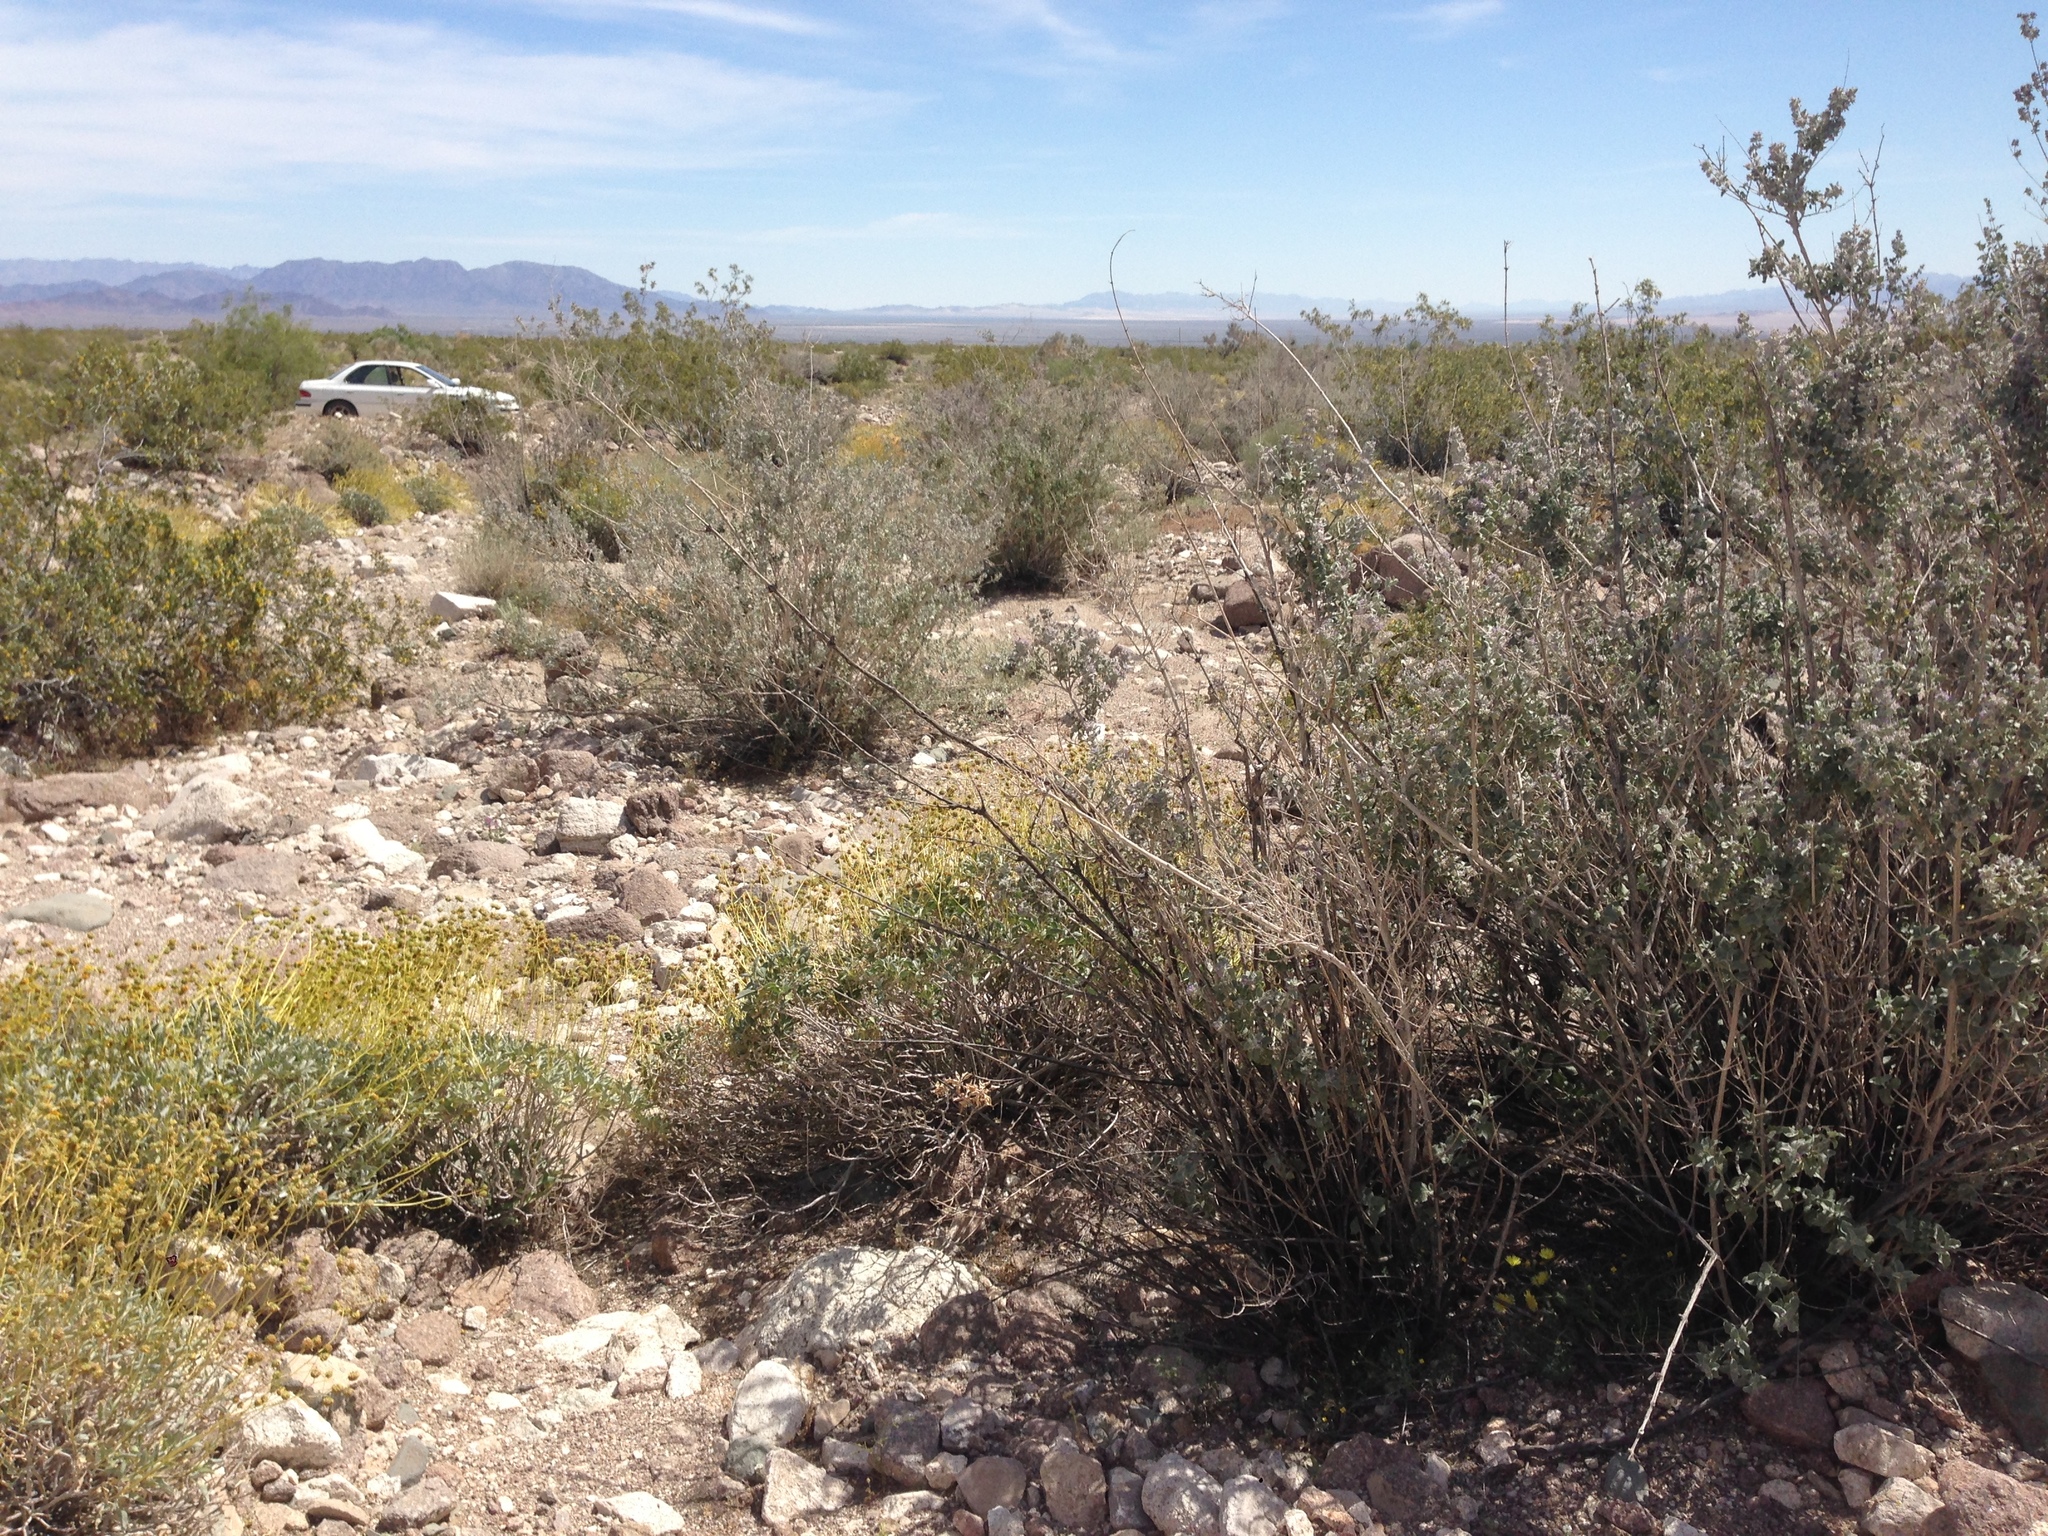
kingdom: Plantae
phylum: Tracheophyta
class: Magnoliopsida
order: Lamiales
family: Lamiaceae
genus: Condea
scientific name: Condea emoryi
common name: Chia
